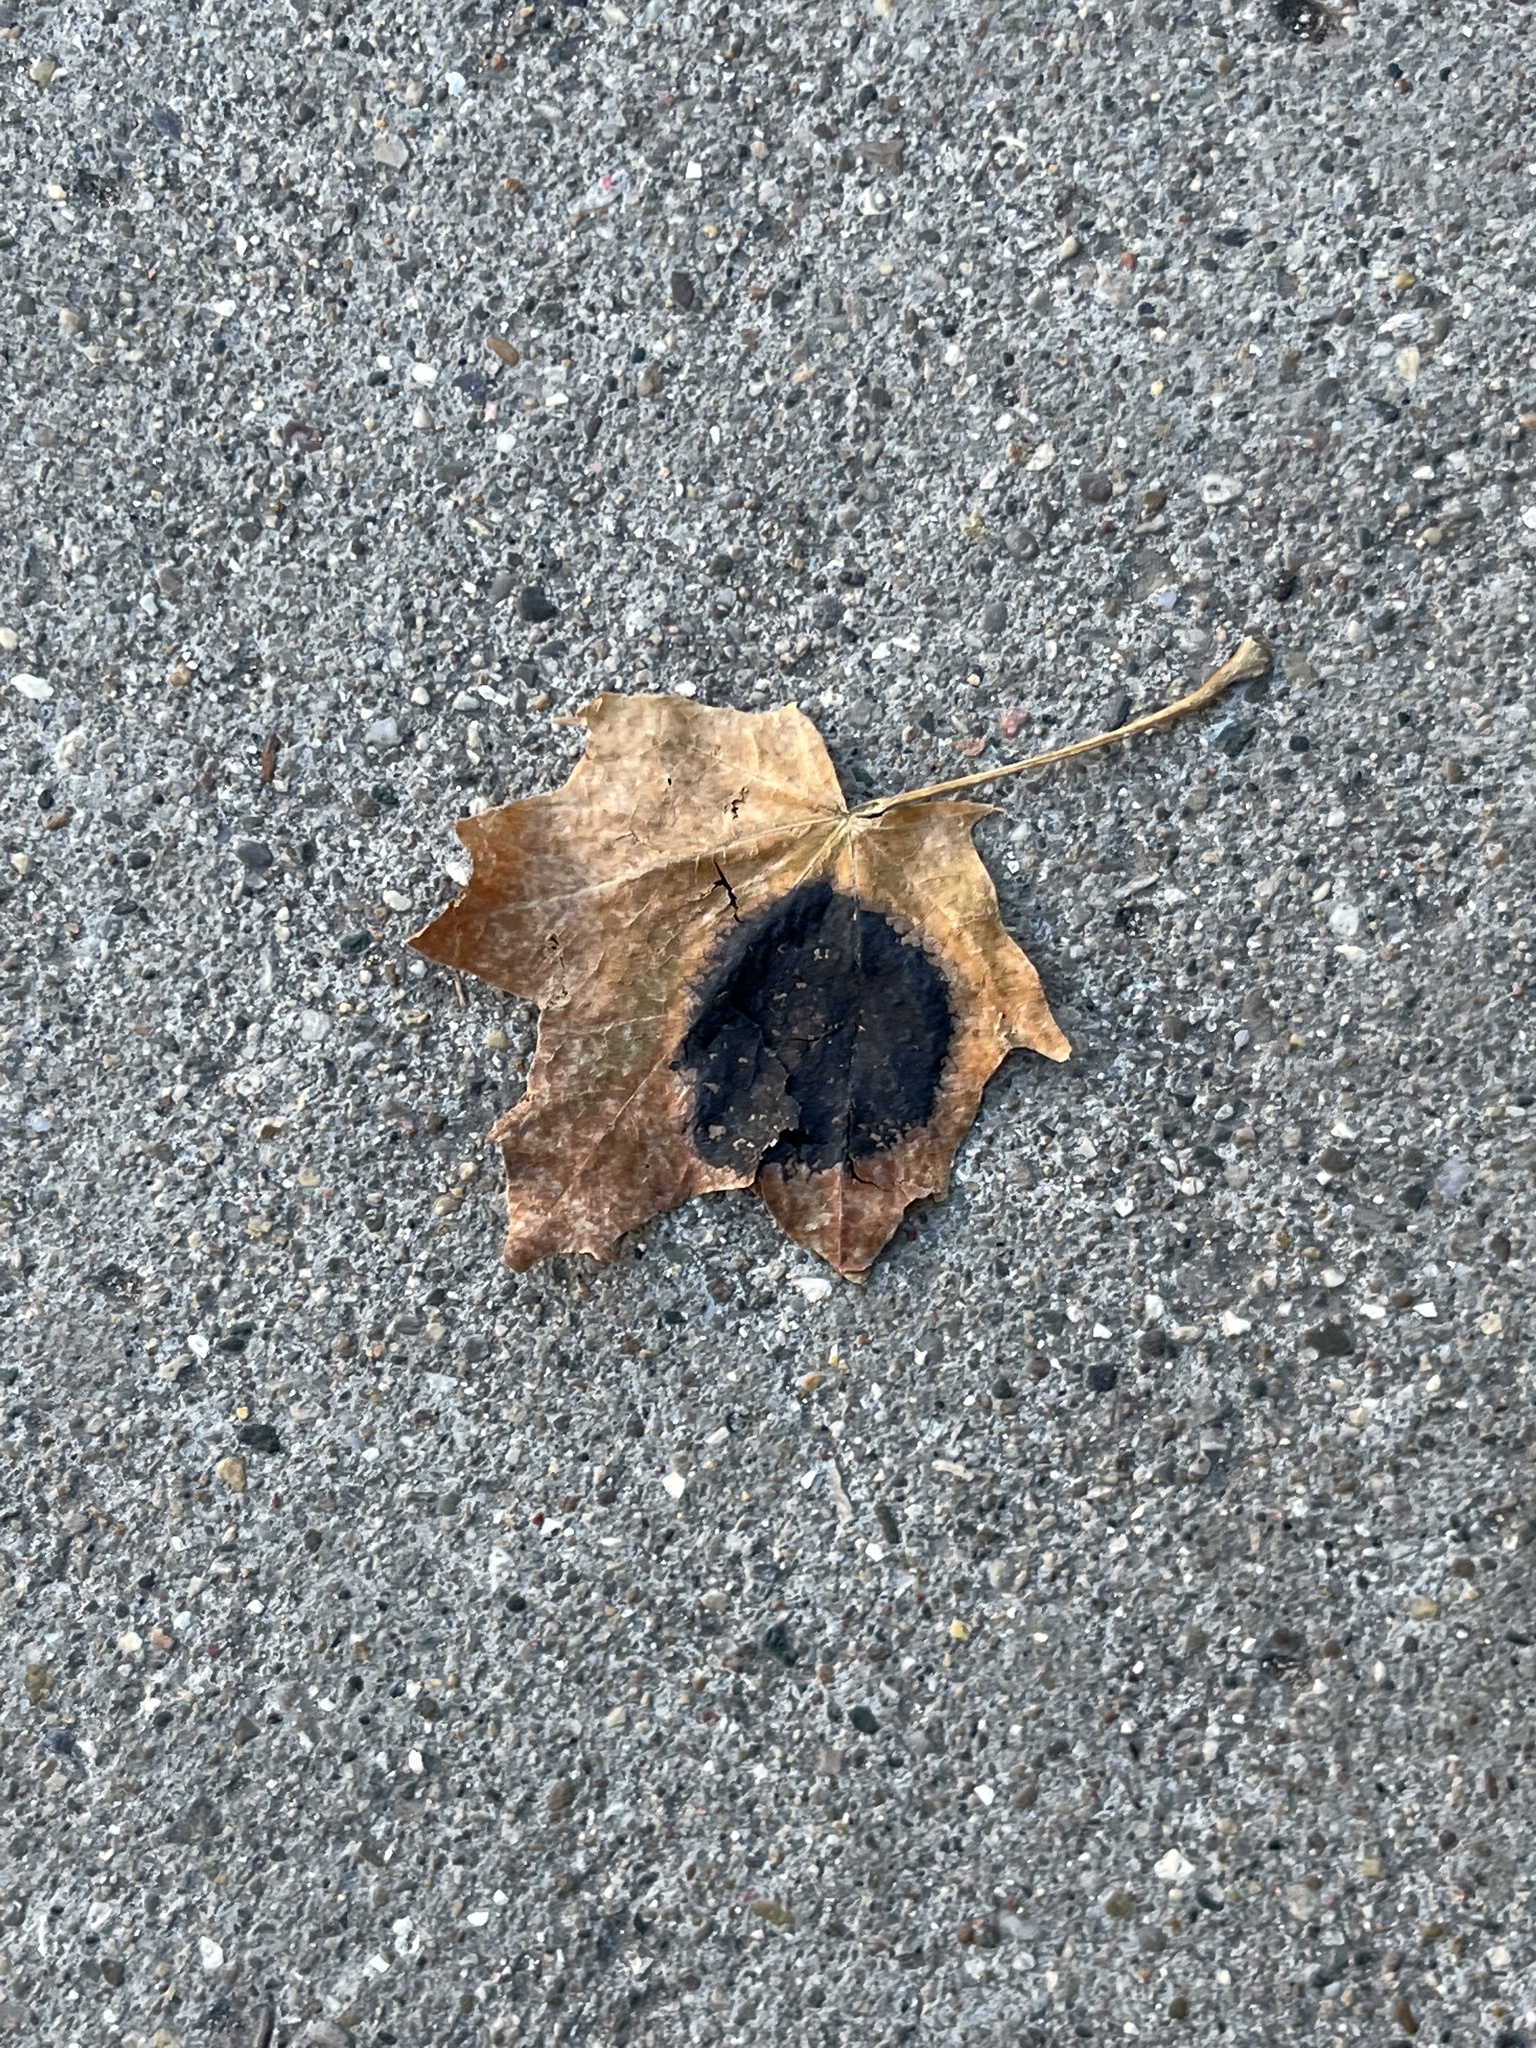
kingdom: Fungi
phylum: Ascomycota
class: Leotiomycetes
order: Rhytismatales
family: Rhytismataceae
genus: Rhytisma
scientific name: Rhytisma acerinum
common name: European tar spot
